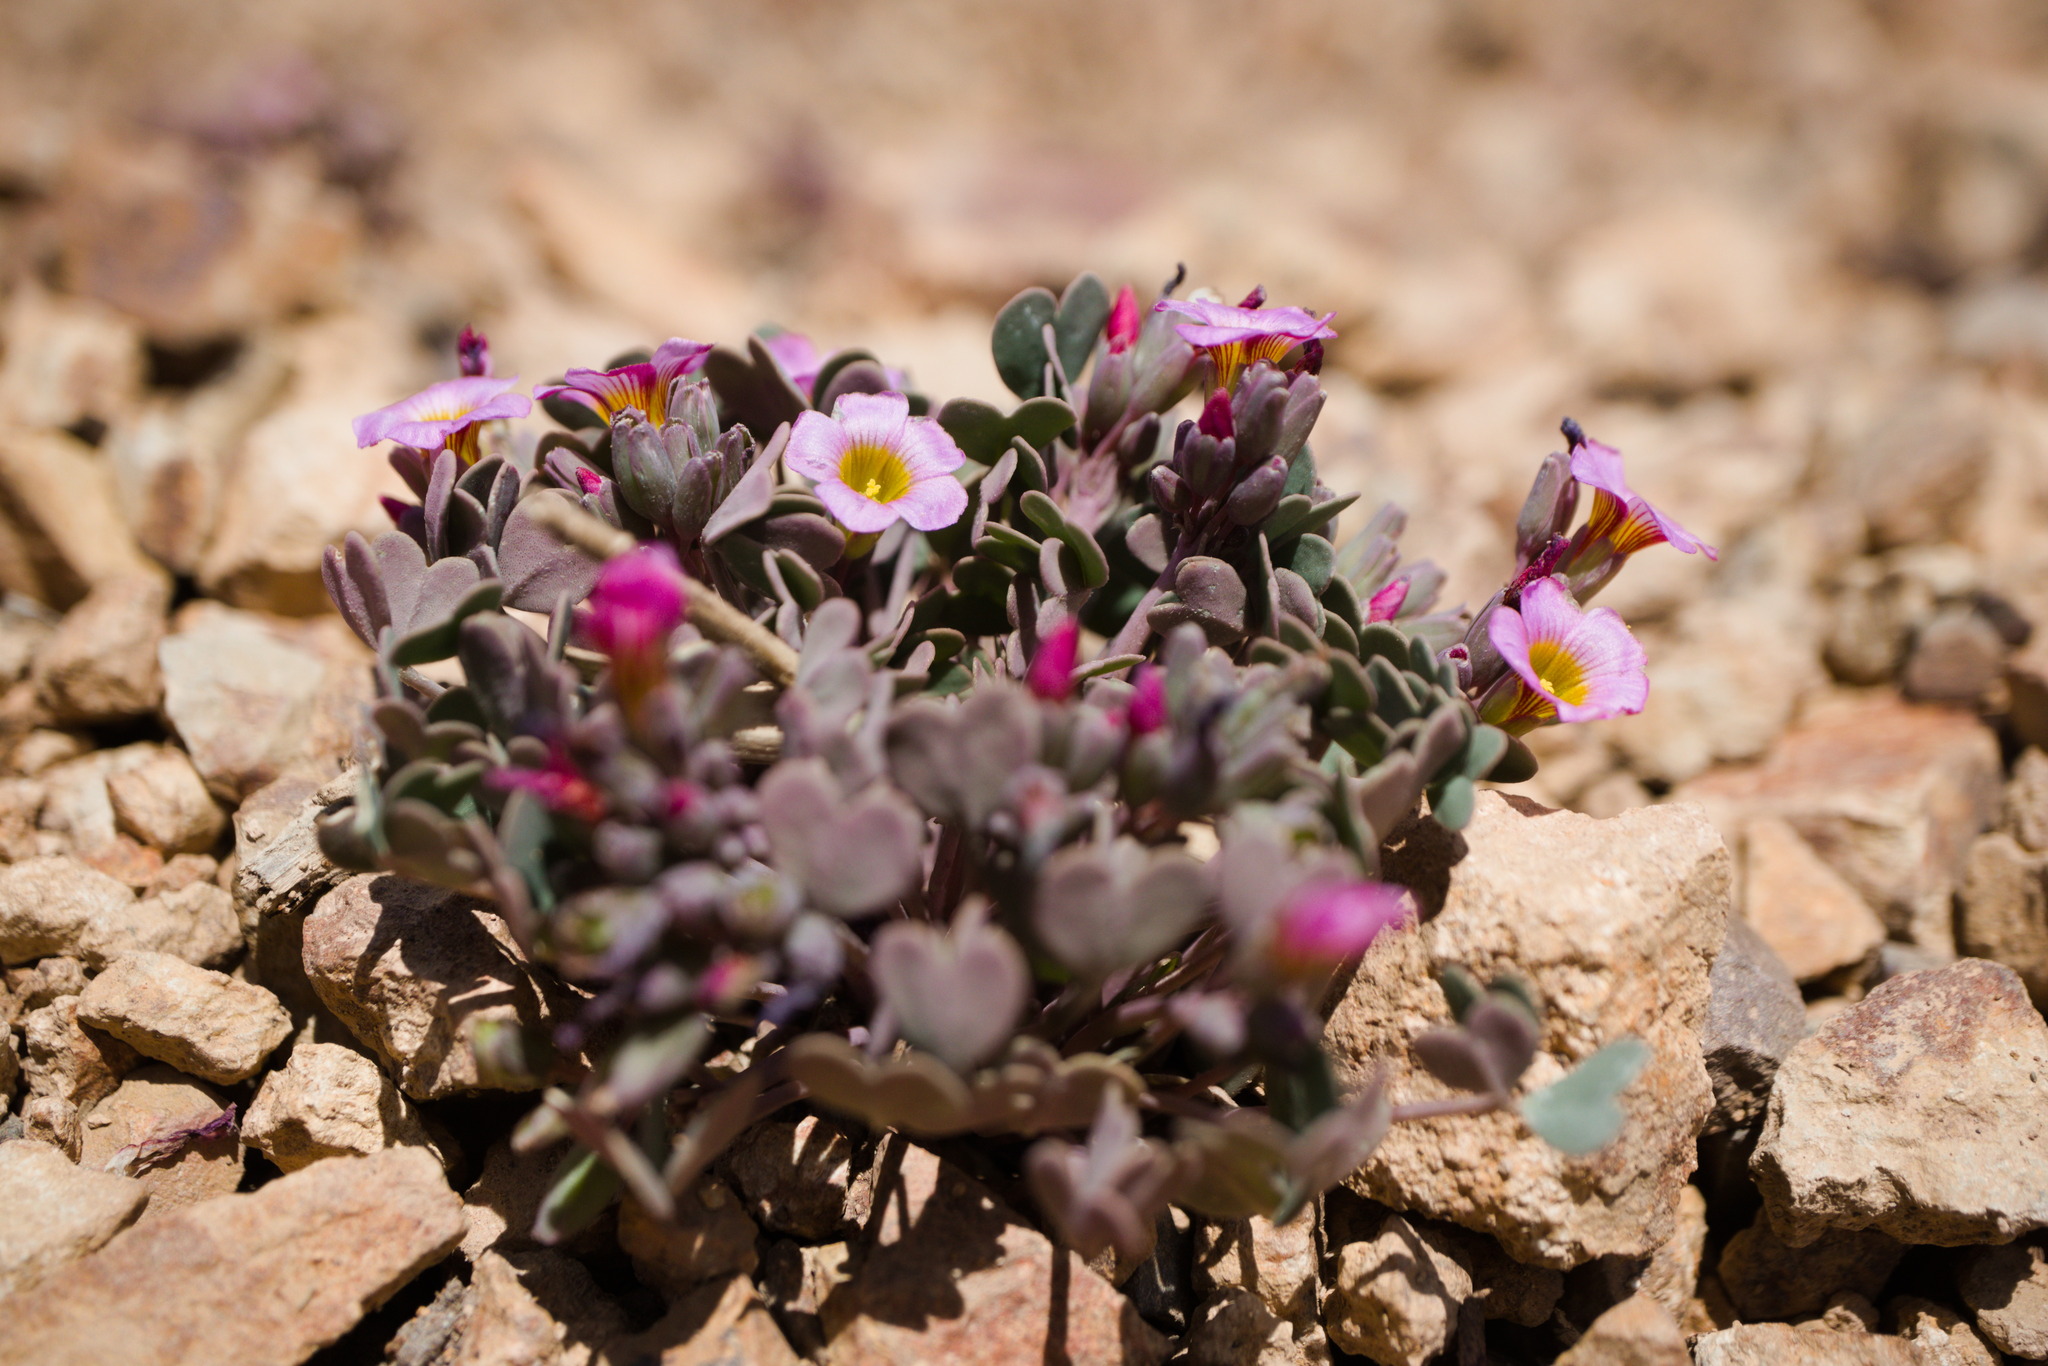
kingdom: Plantae
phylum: Tracheophyta
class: Magnoliopsida
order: Oxalidales
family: Oxalidaceae
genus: Oxalis
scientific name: Oxalis squamata
